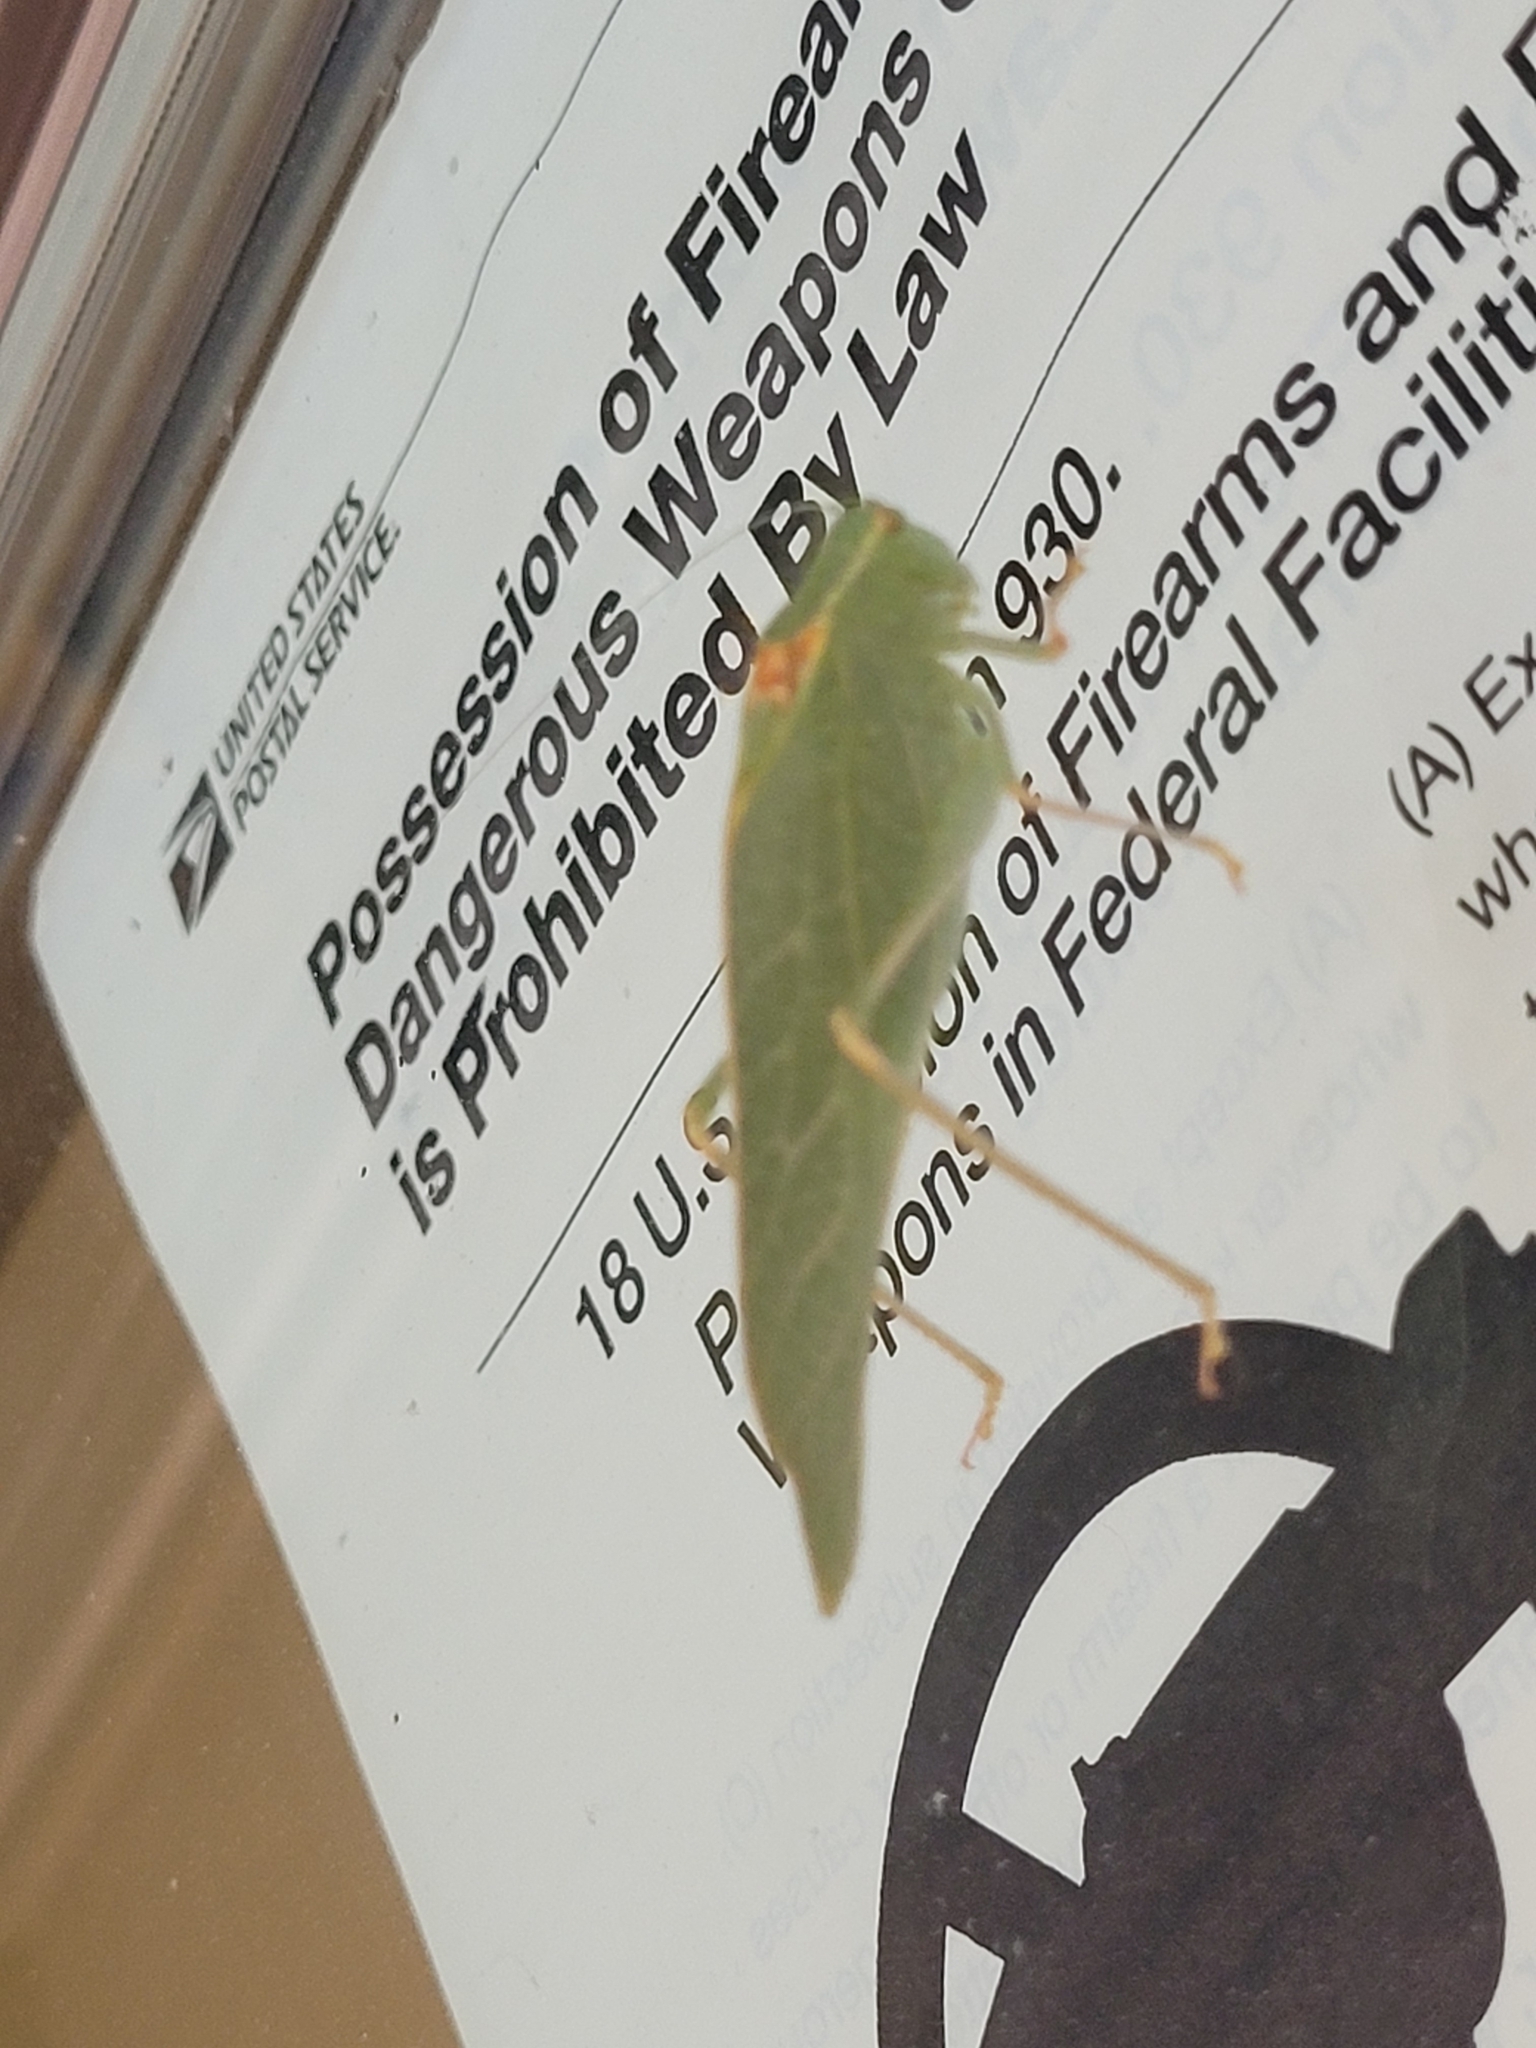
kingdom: Animalia
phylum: Arthropoda
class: Insecta
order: Orthoptera
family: Tettigoniidae
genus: Microcentrum
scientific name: Microcentrum californicum
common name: California angle-wing
